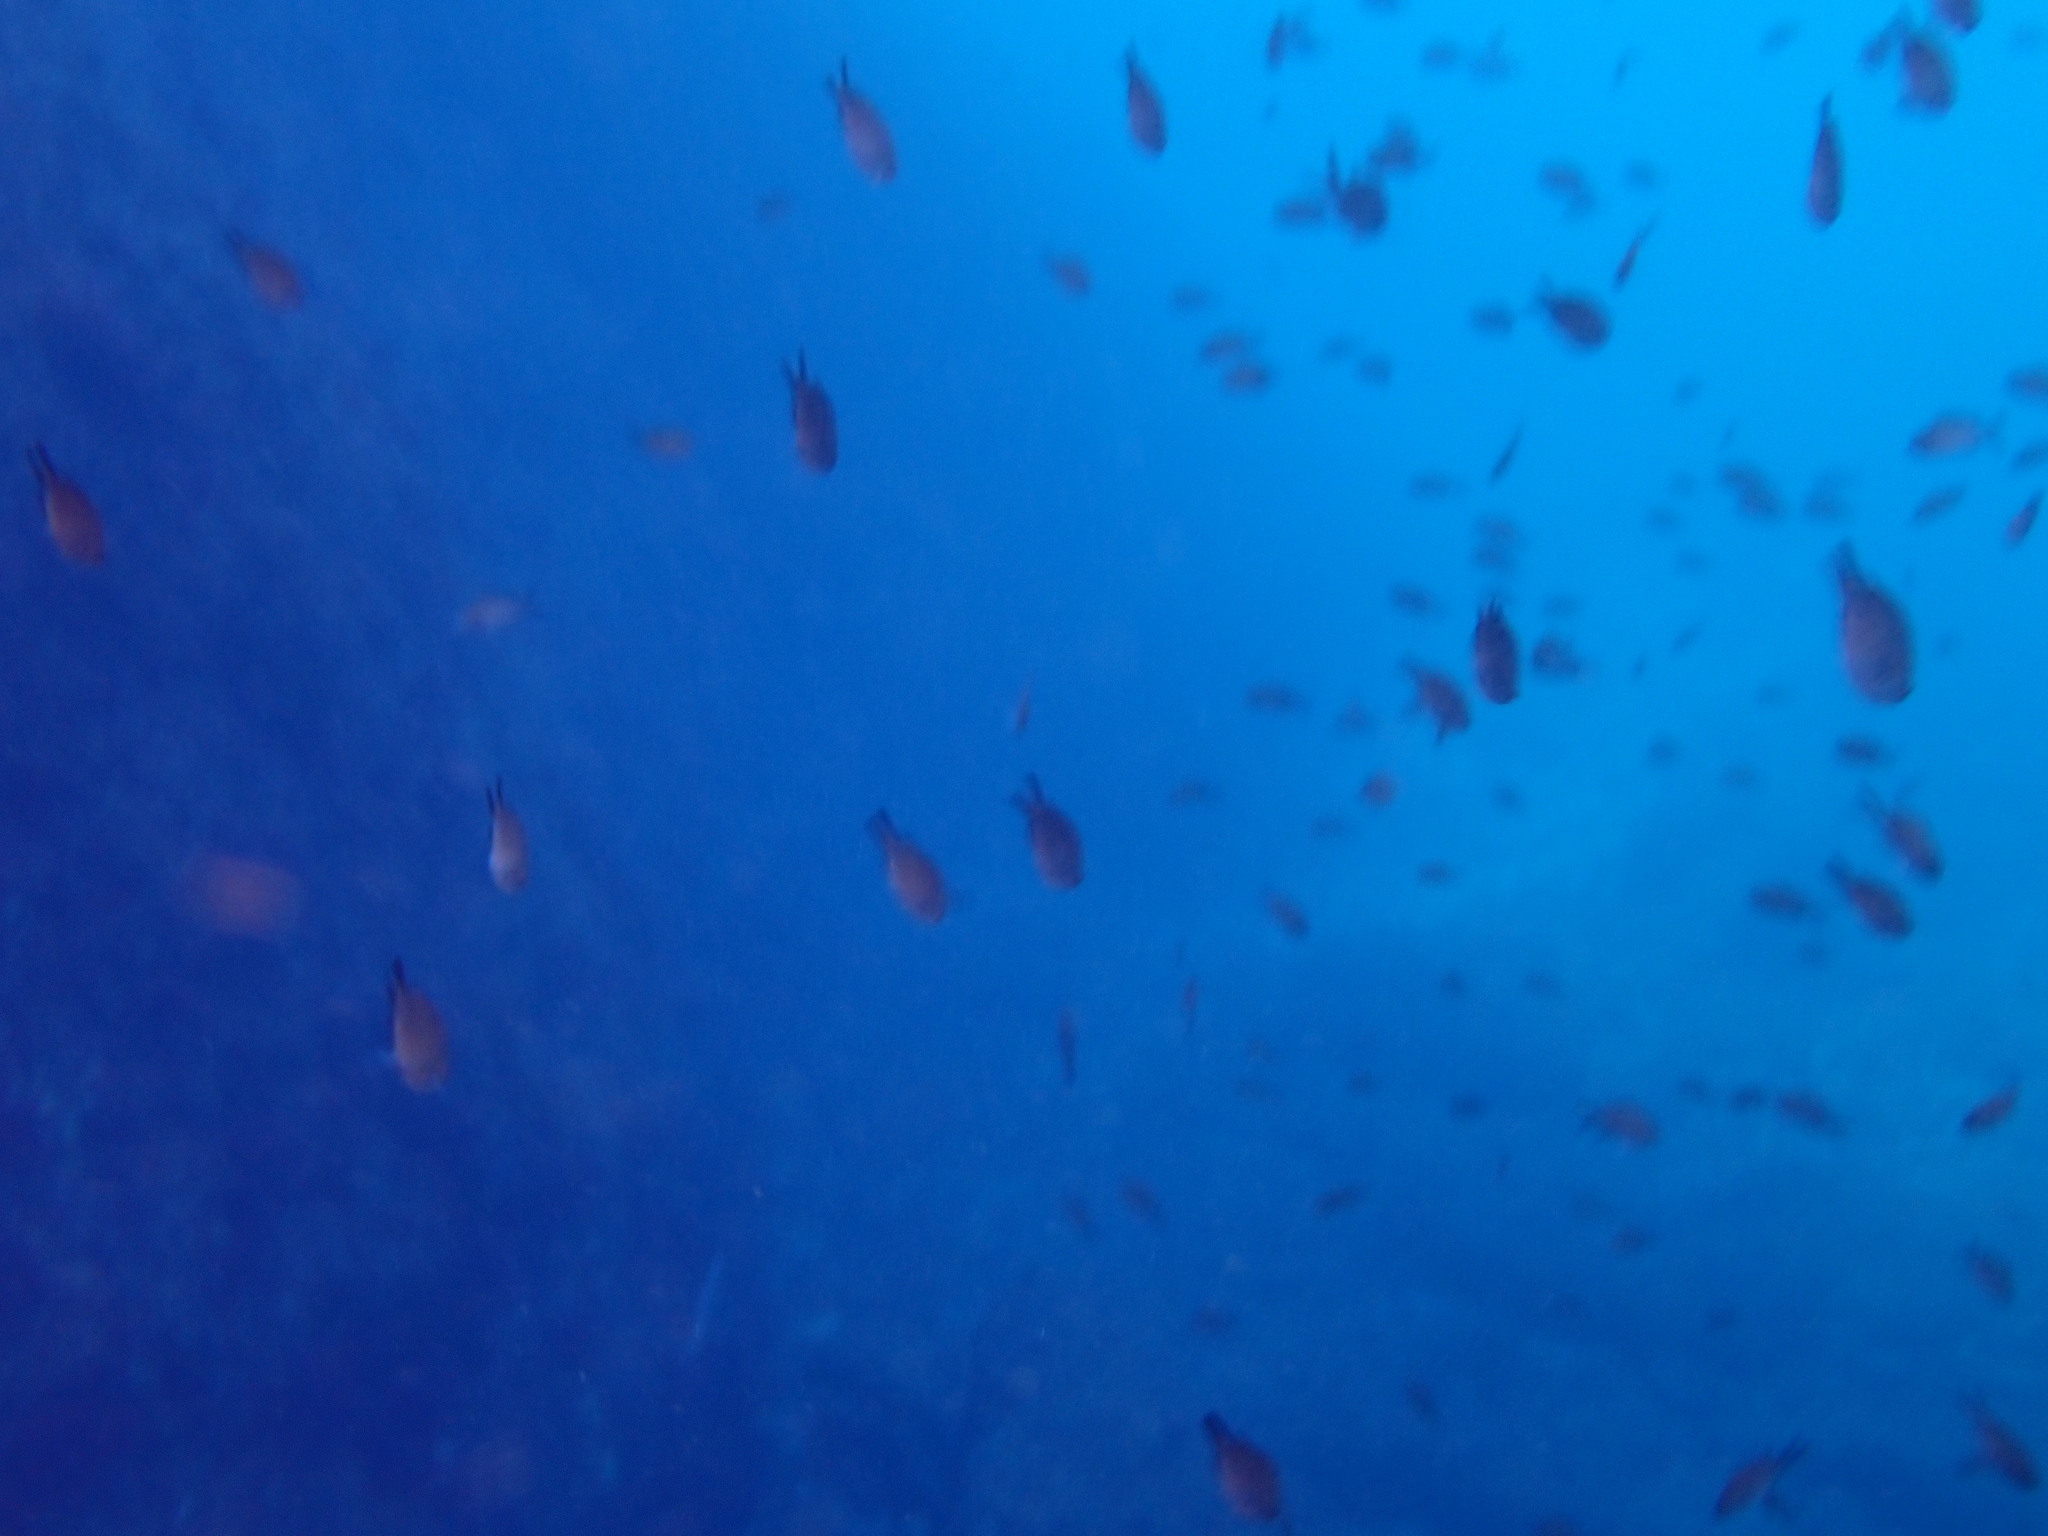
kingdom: Animalia
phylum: Chordata
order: Perciformes
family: Pomacentridae
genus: Chromis
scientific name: Chromis chromis
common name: Damselfish
